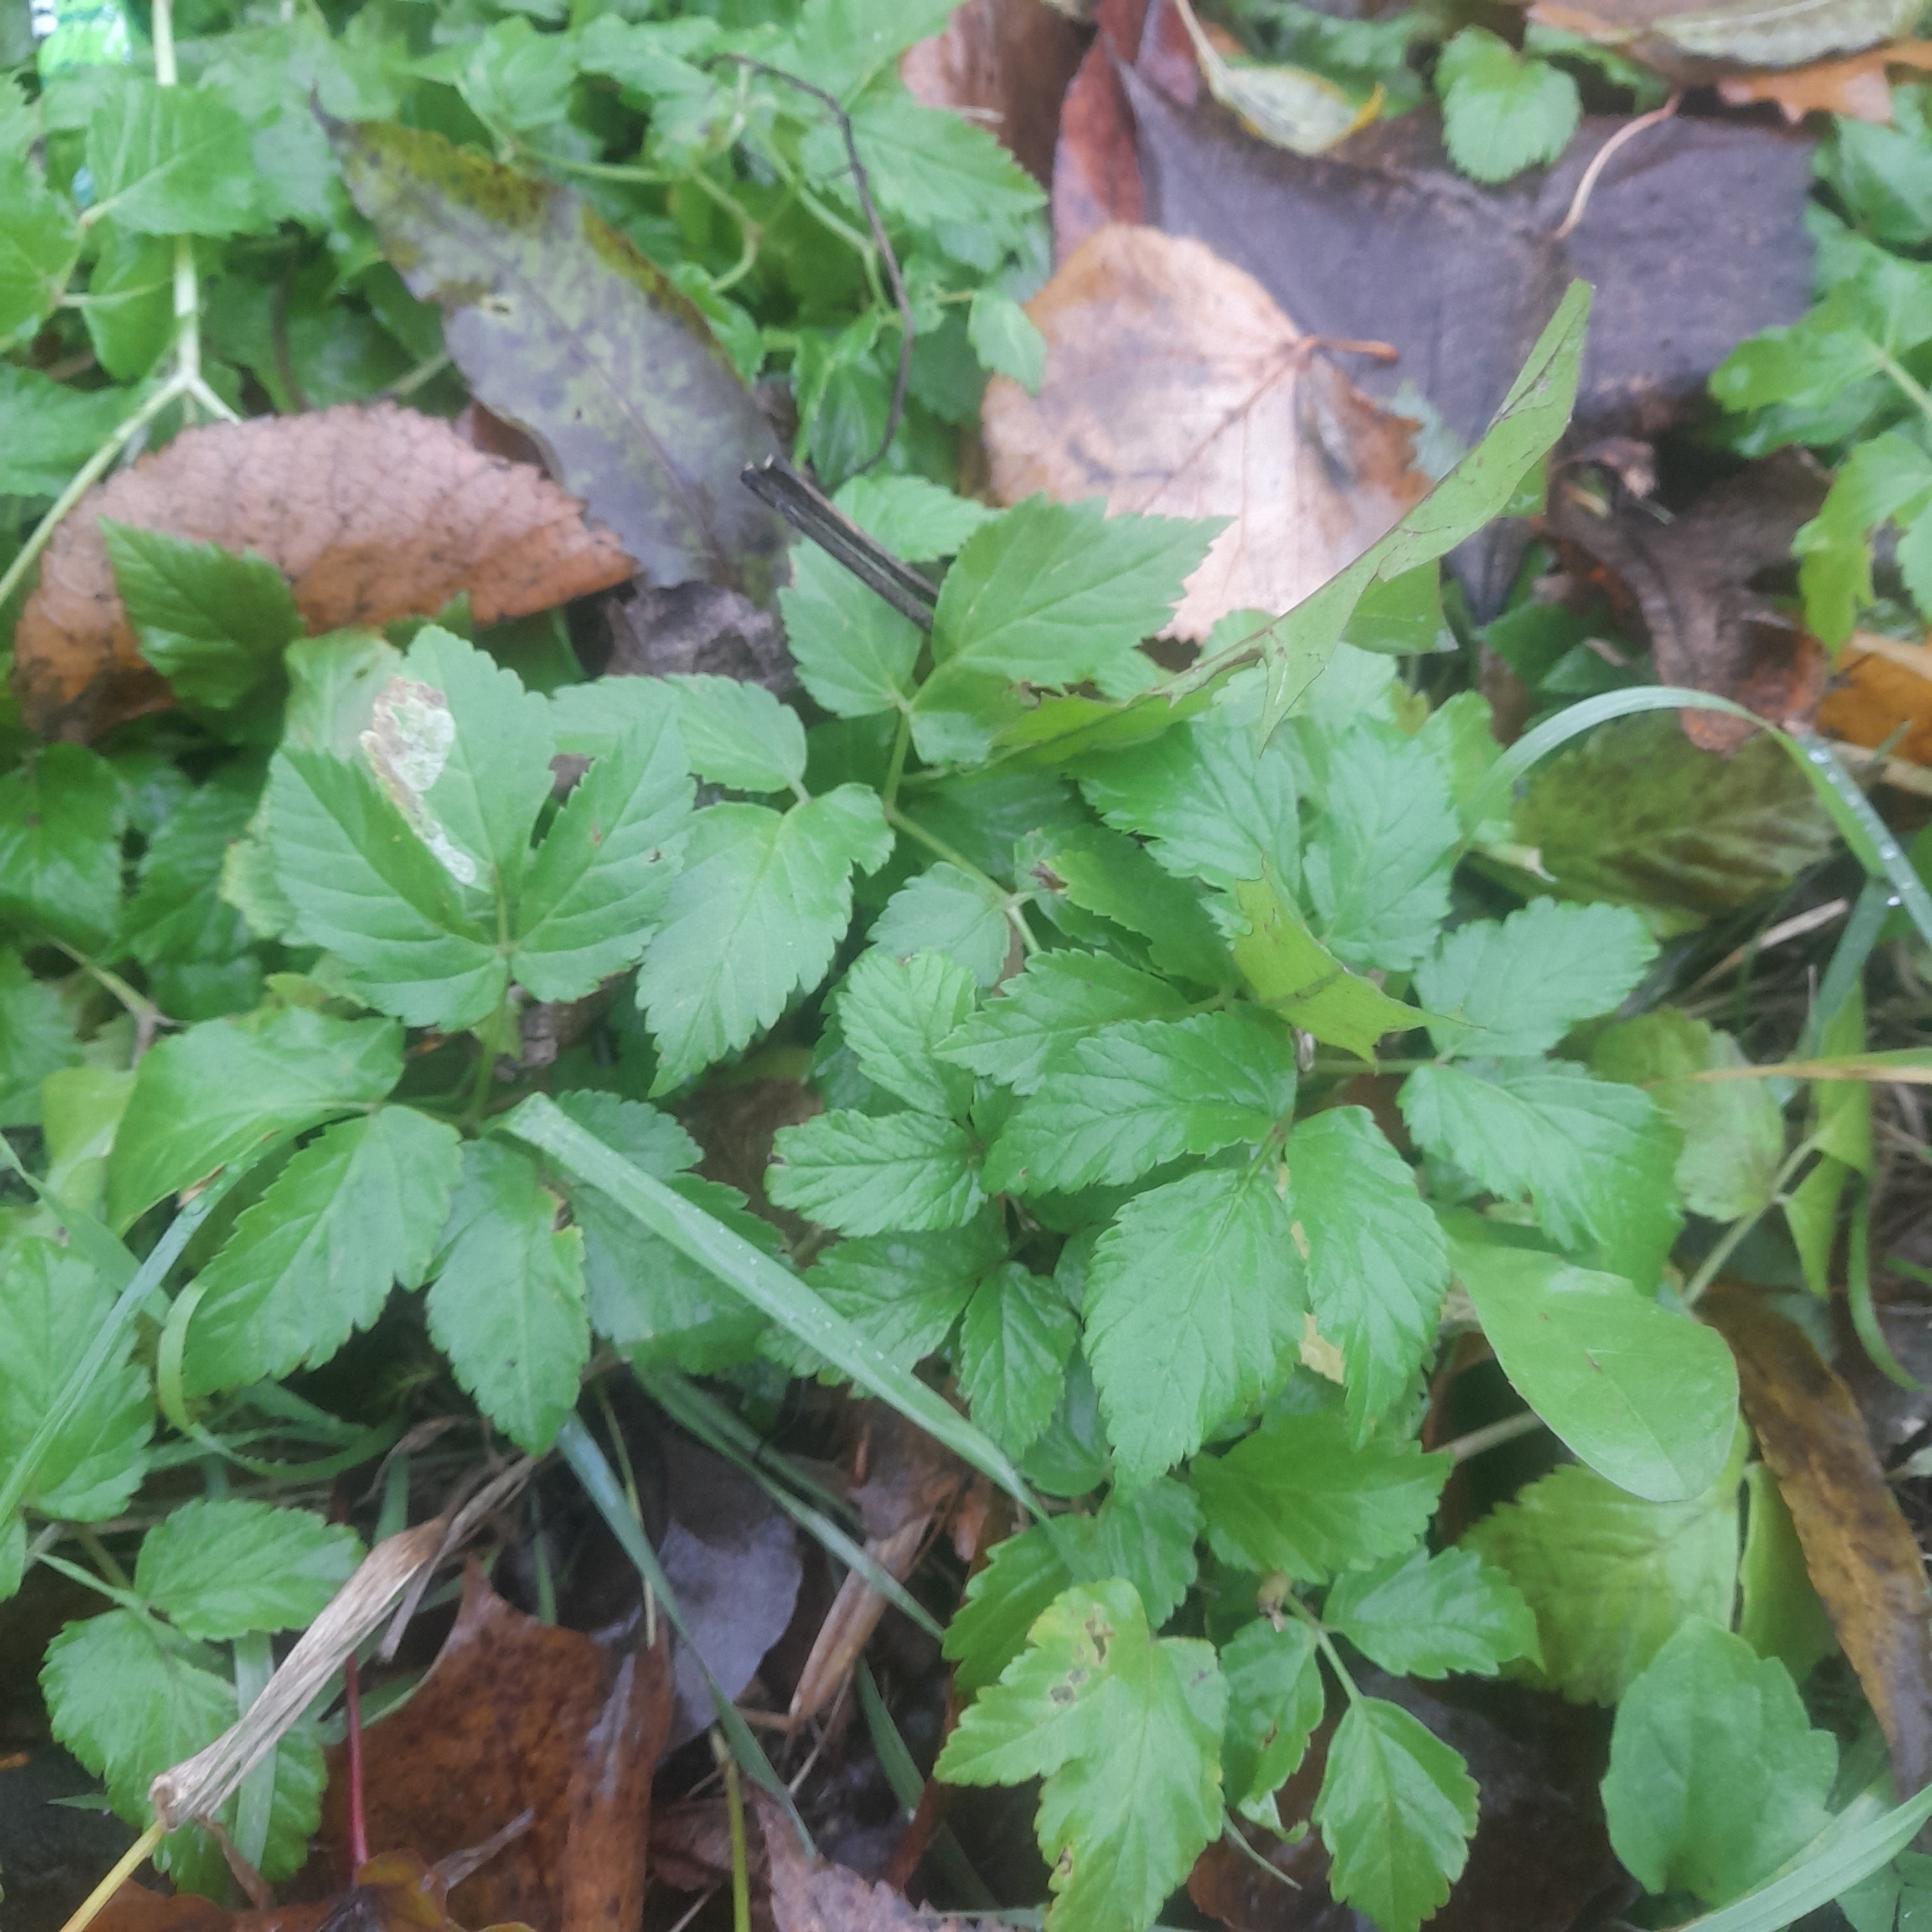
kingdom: Plantae
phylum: Tracheophyta
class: Magnoliopsida
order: Apiales
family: Apiaceae
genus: Aegopodium
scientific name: Aegopodium podagraria
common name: Ground-elder
